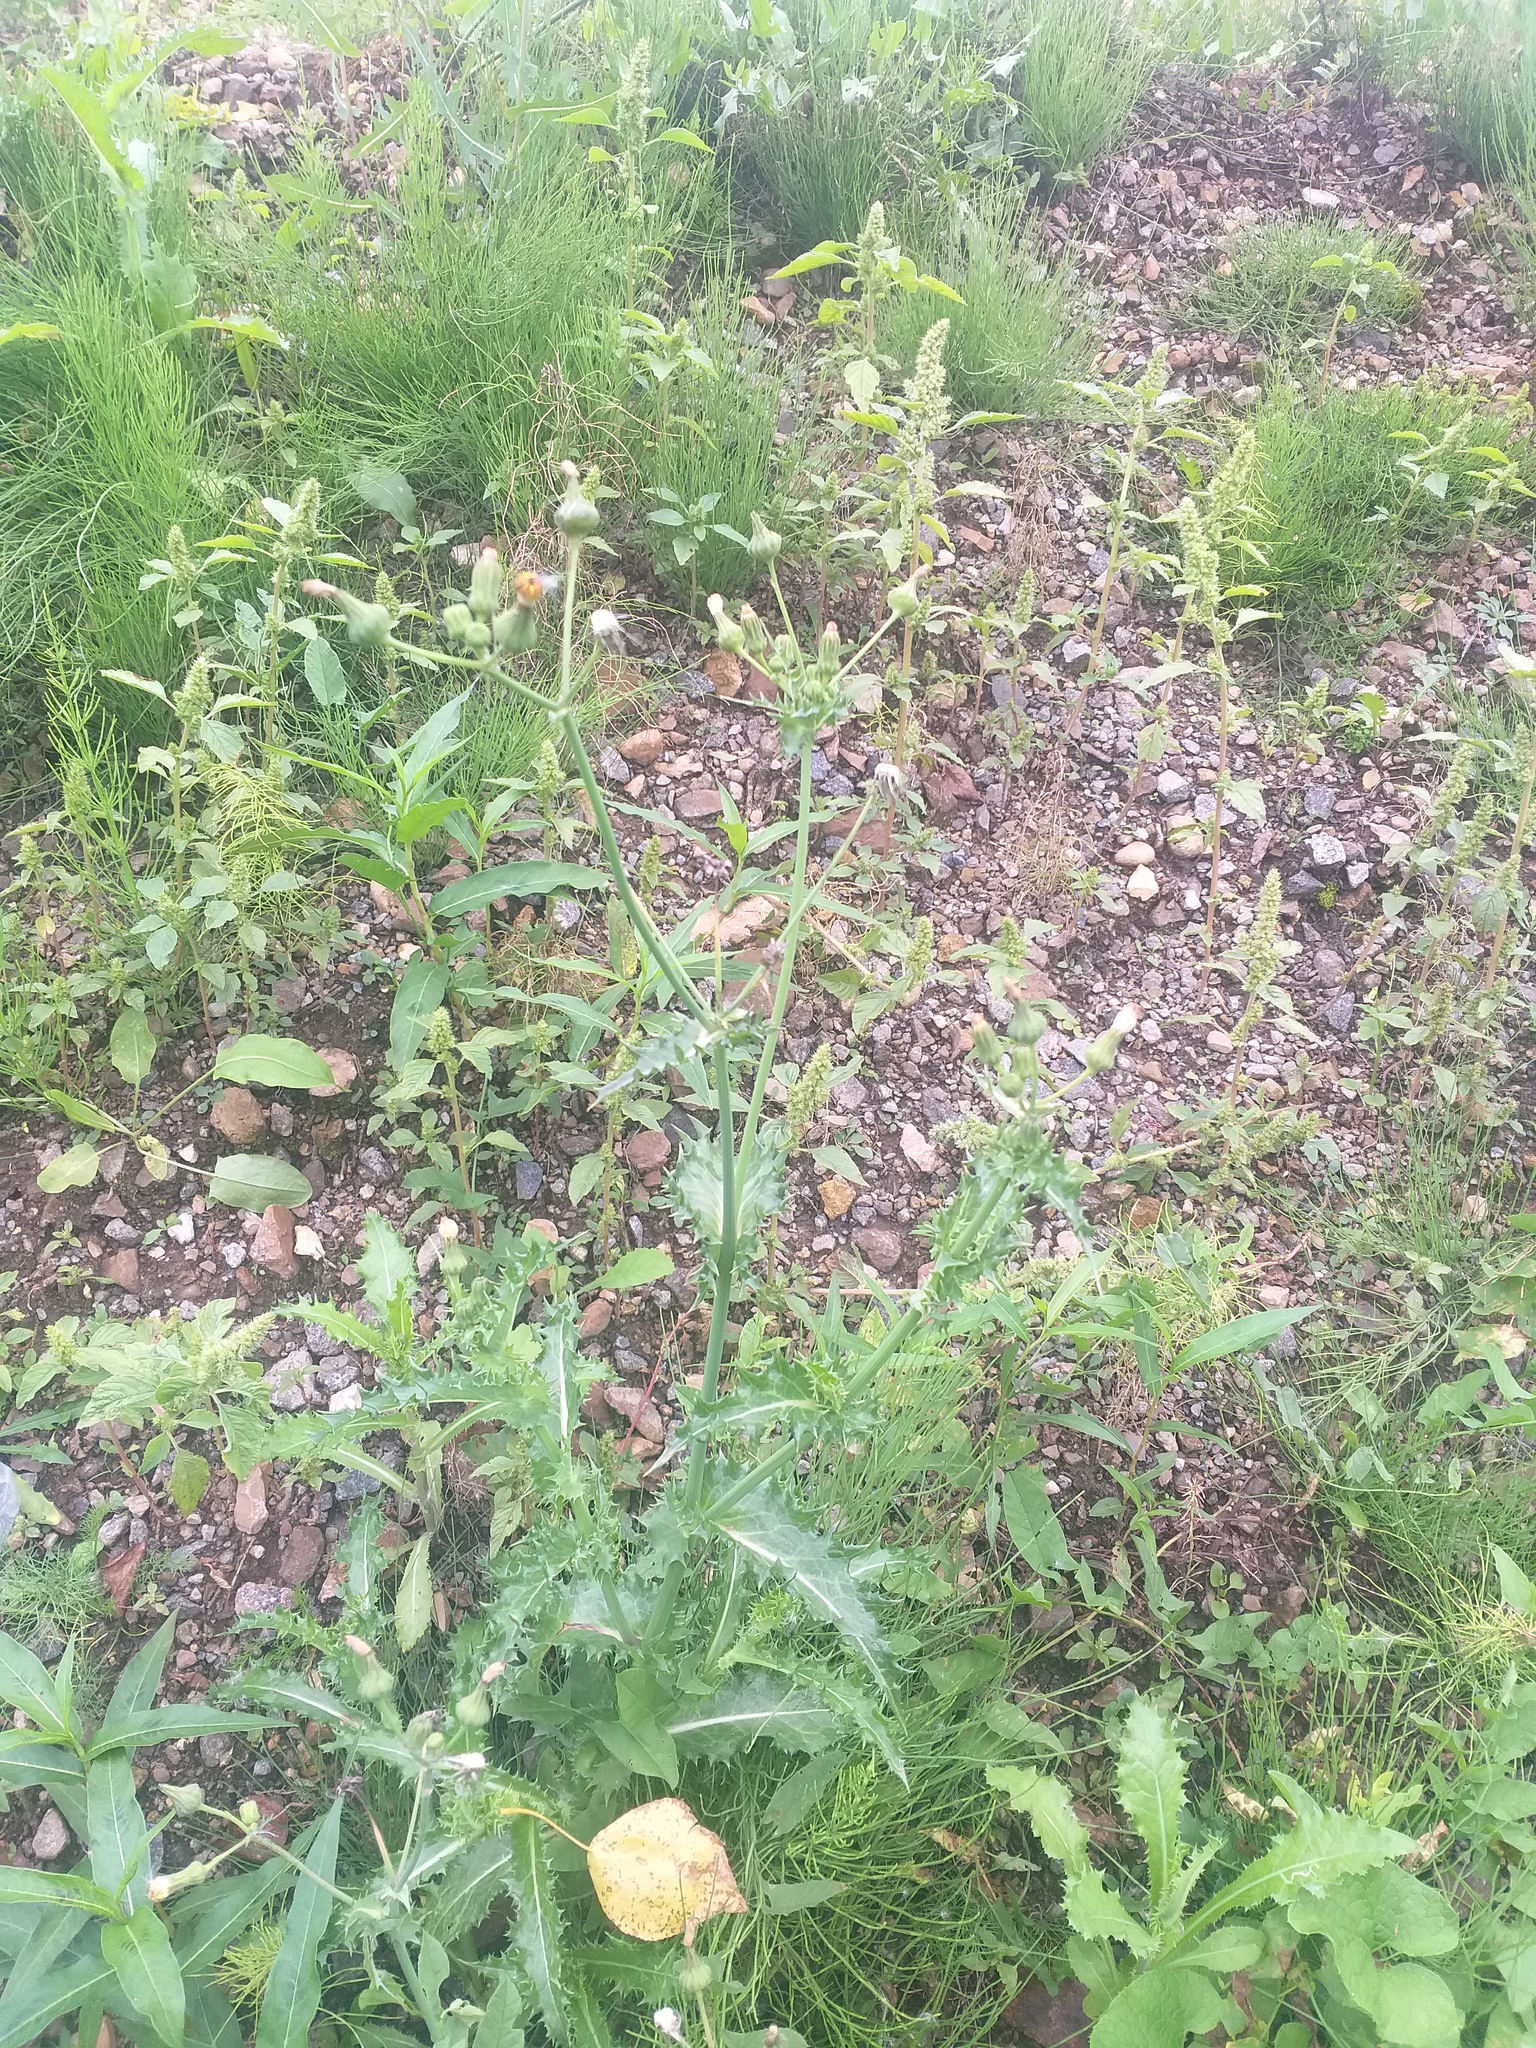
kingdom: Plantae
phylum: Tracheophyta
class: Magnoliopsida
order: Asterales
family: Asteraceae
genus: Sonchus
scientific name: Sonchus asper
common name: Prickly sow-thistle
